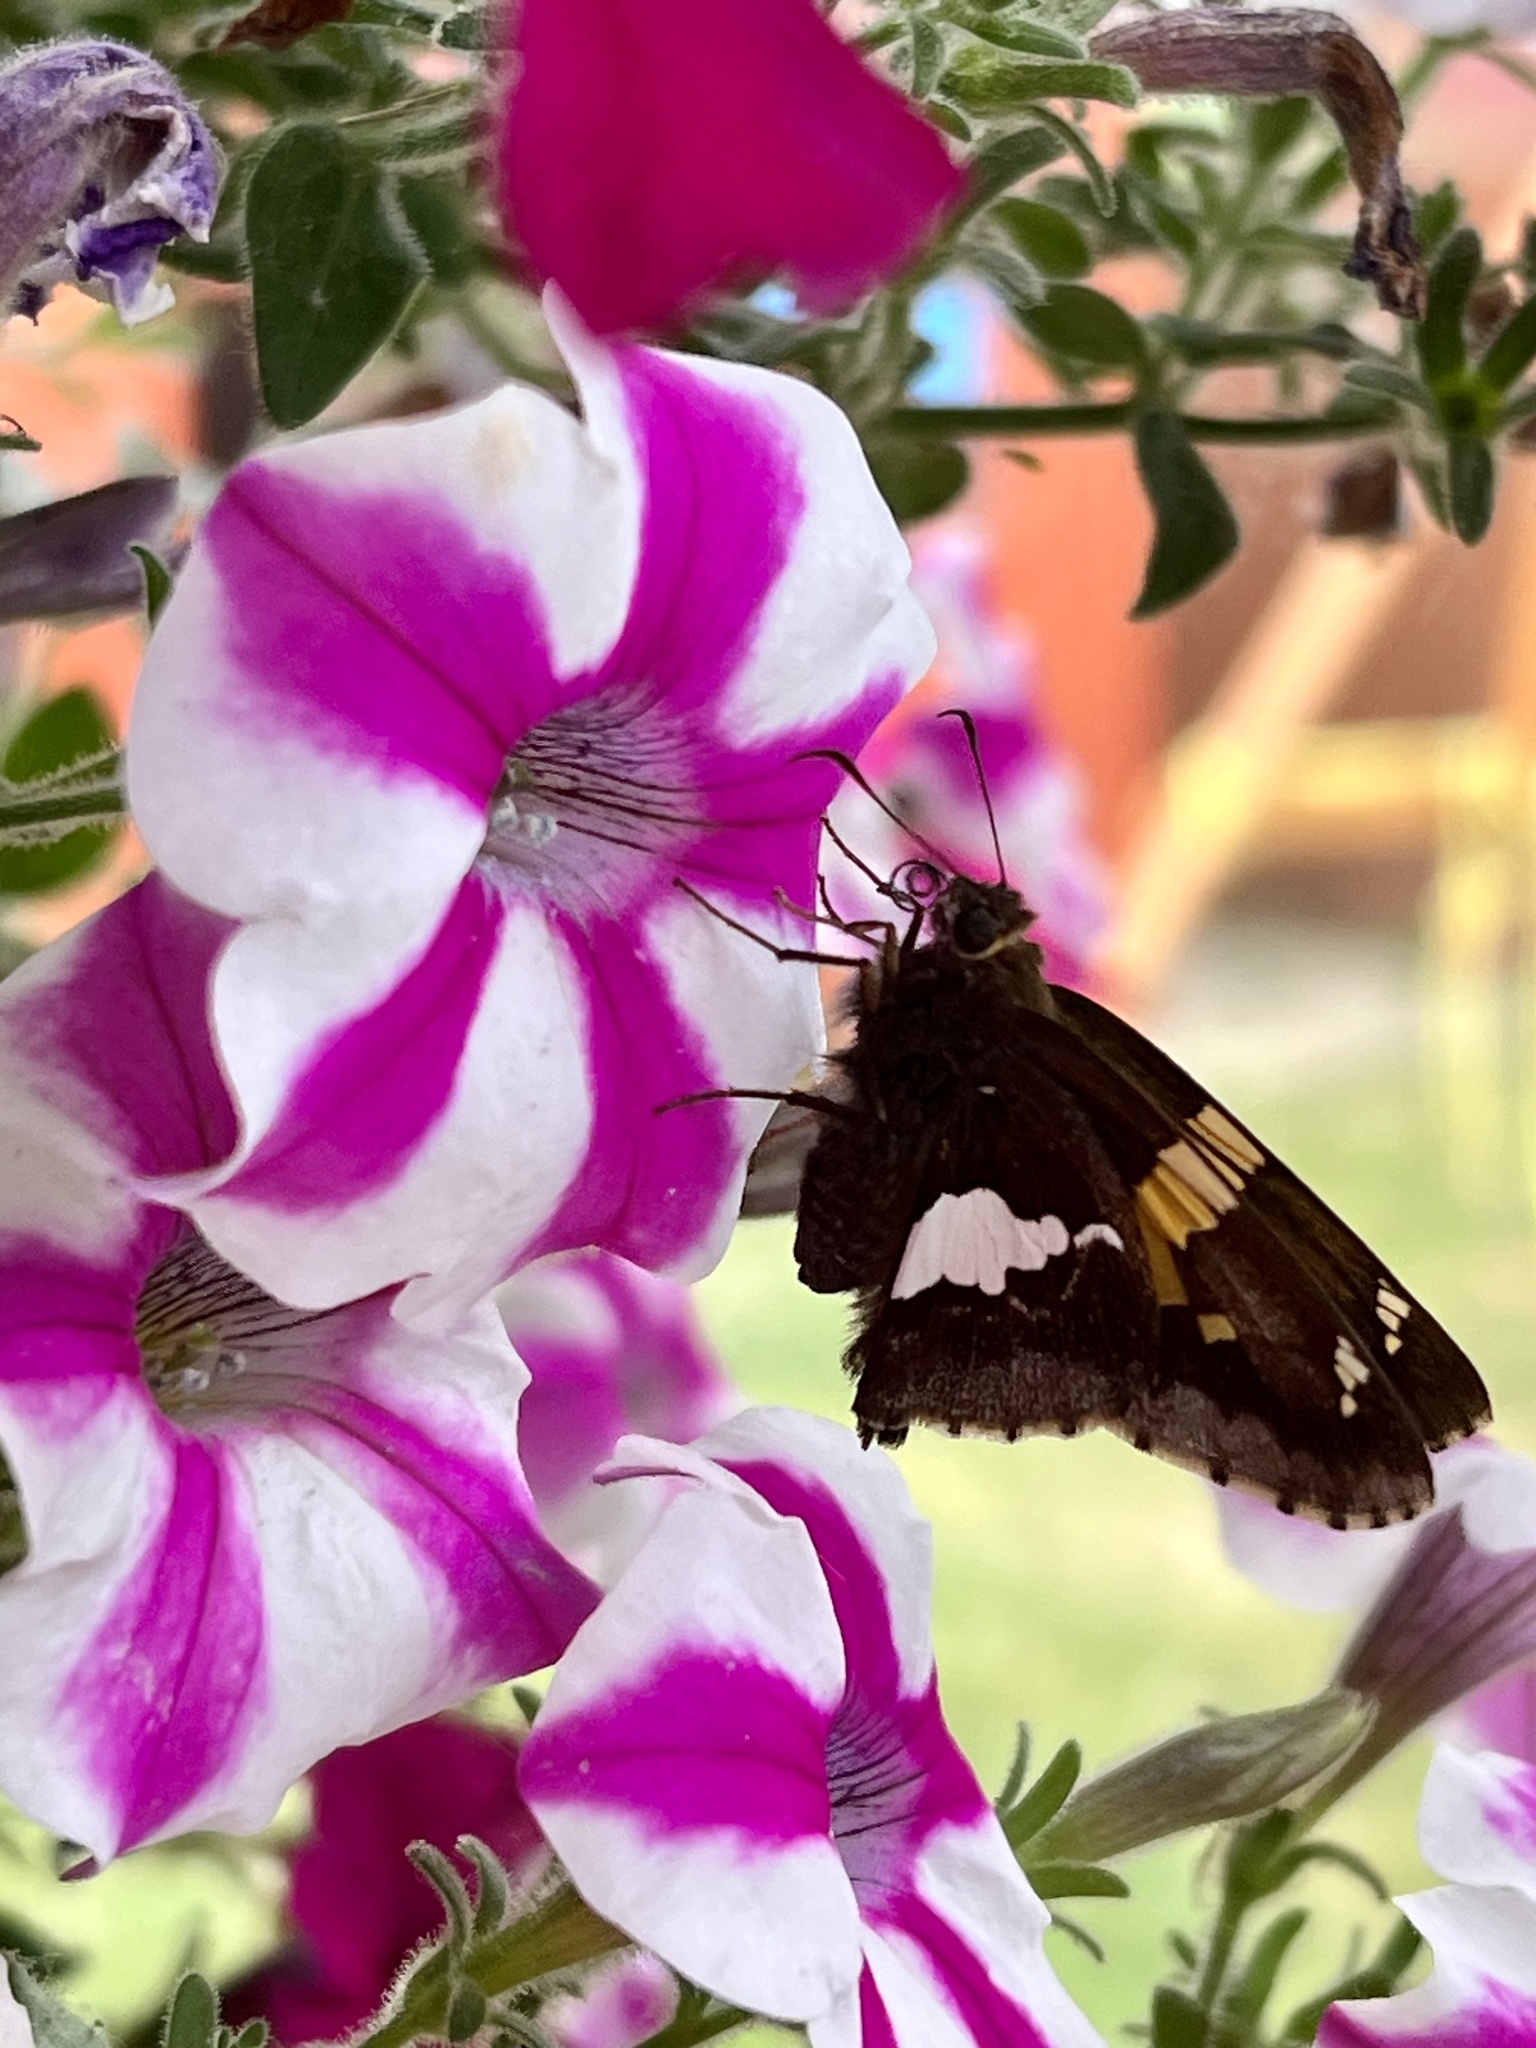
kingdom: Animalia
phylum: Arthropoda
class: Insecta
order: Lepidoptera
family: Hesperiidae
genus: Epargyreus
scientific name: Epargyreus clarus
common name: Silver-spotted skipper
